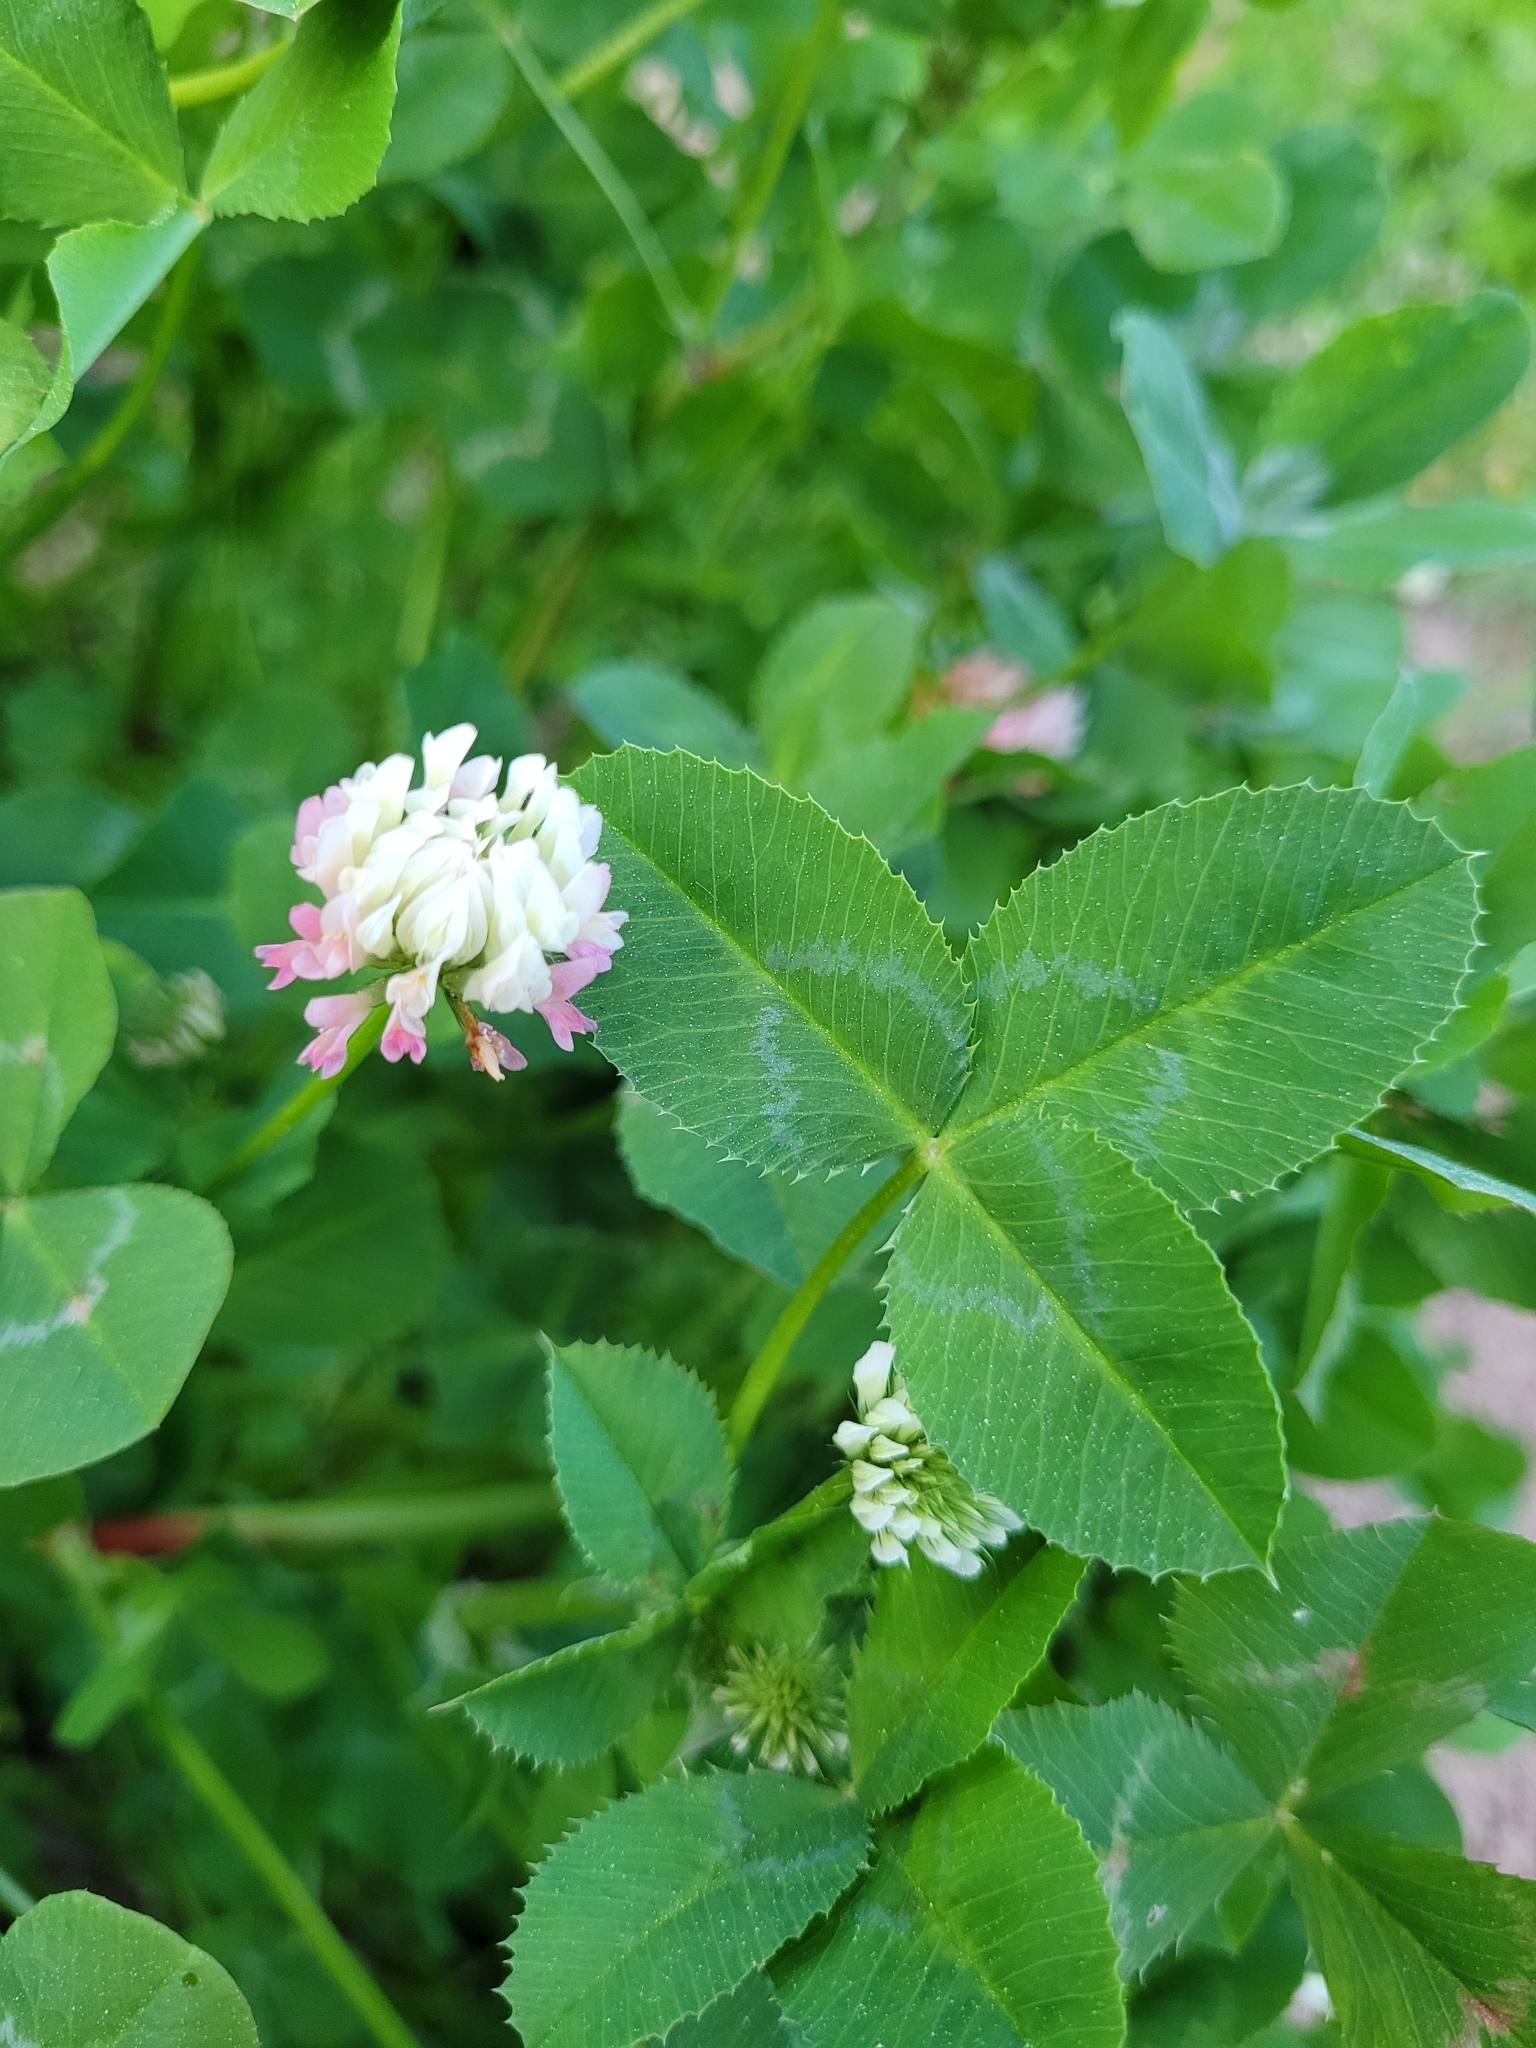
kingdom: Plantae
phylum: Tracheophyta
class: Magnoliopsida
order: Fabales
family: Fabaceae
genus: Trifolium
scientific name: Trifolium repens
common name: White clover
